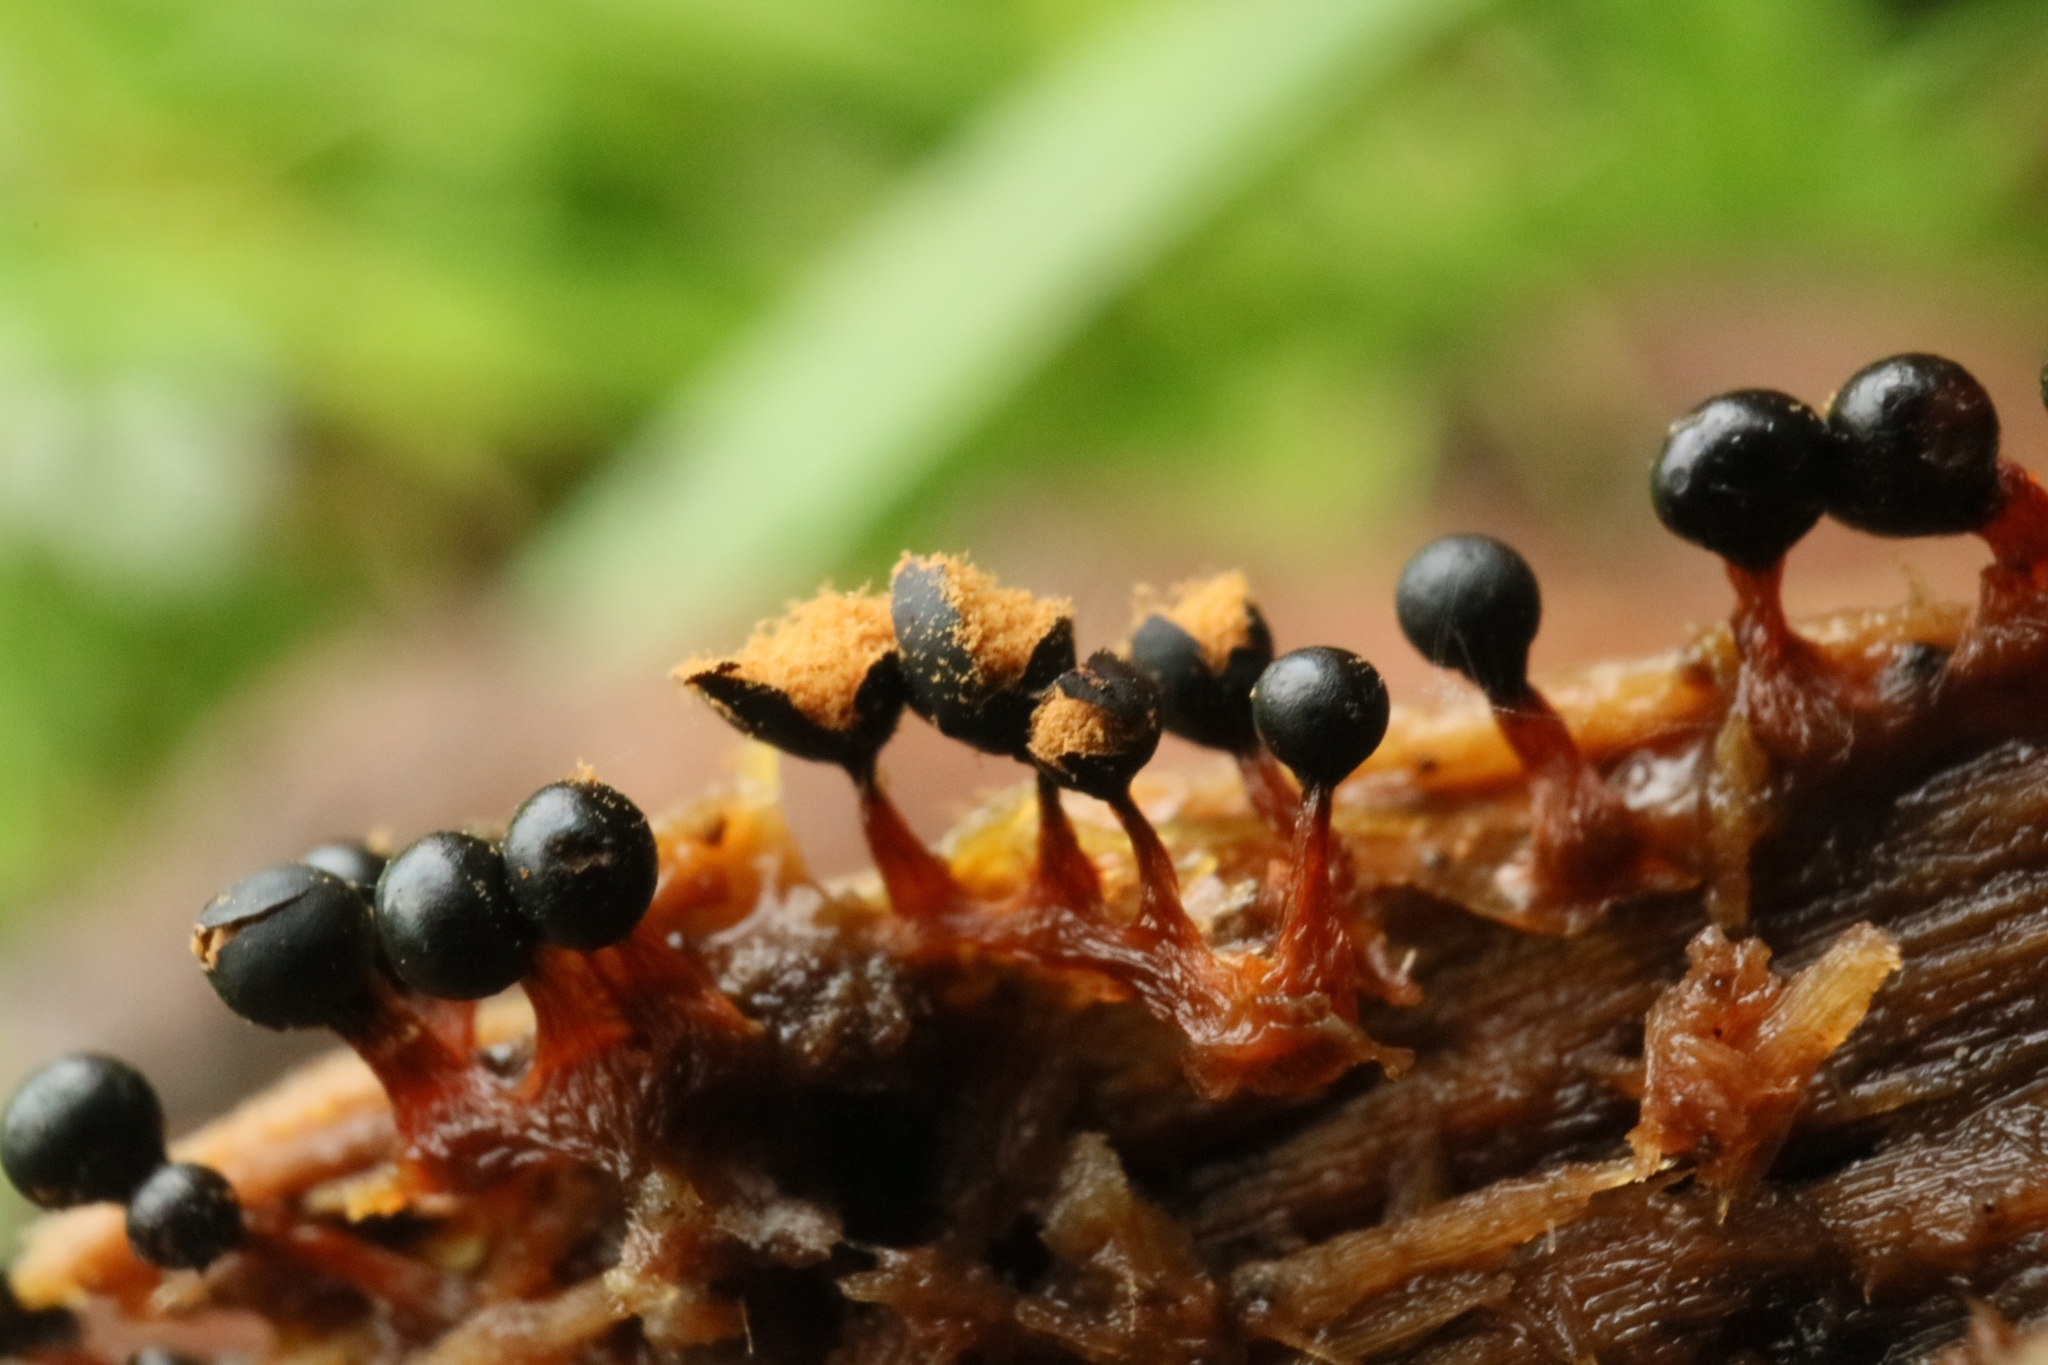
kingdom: Protozoa
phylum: Mycetozoa
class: Myxomycetes
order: Trichiales
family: Trichiaceae
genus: Metatrichia
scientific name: Metatrichia floriformis
